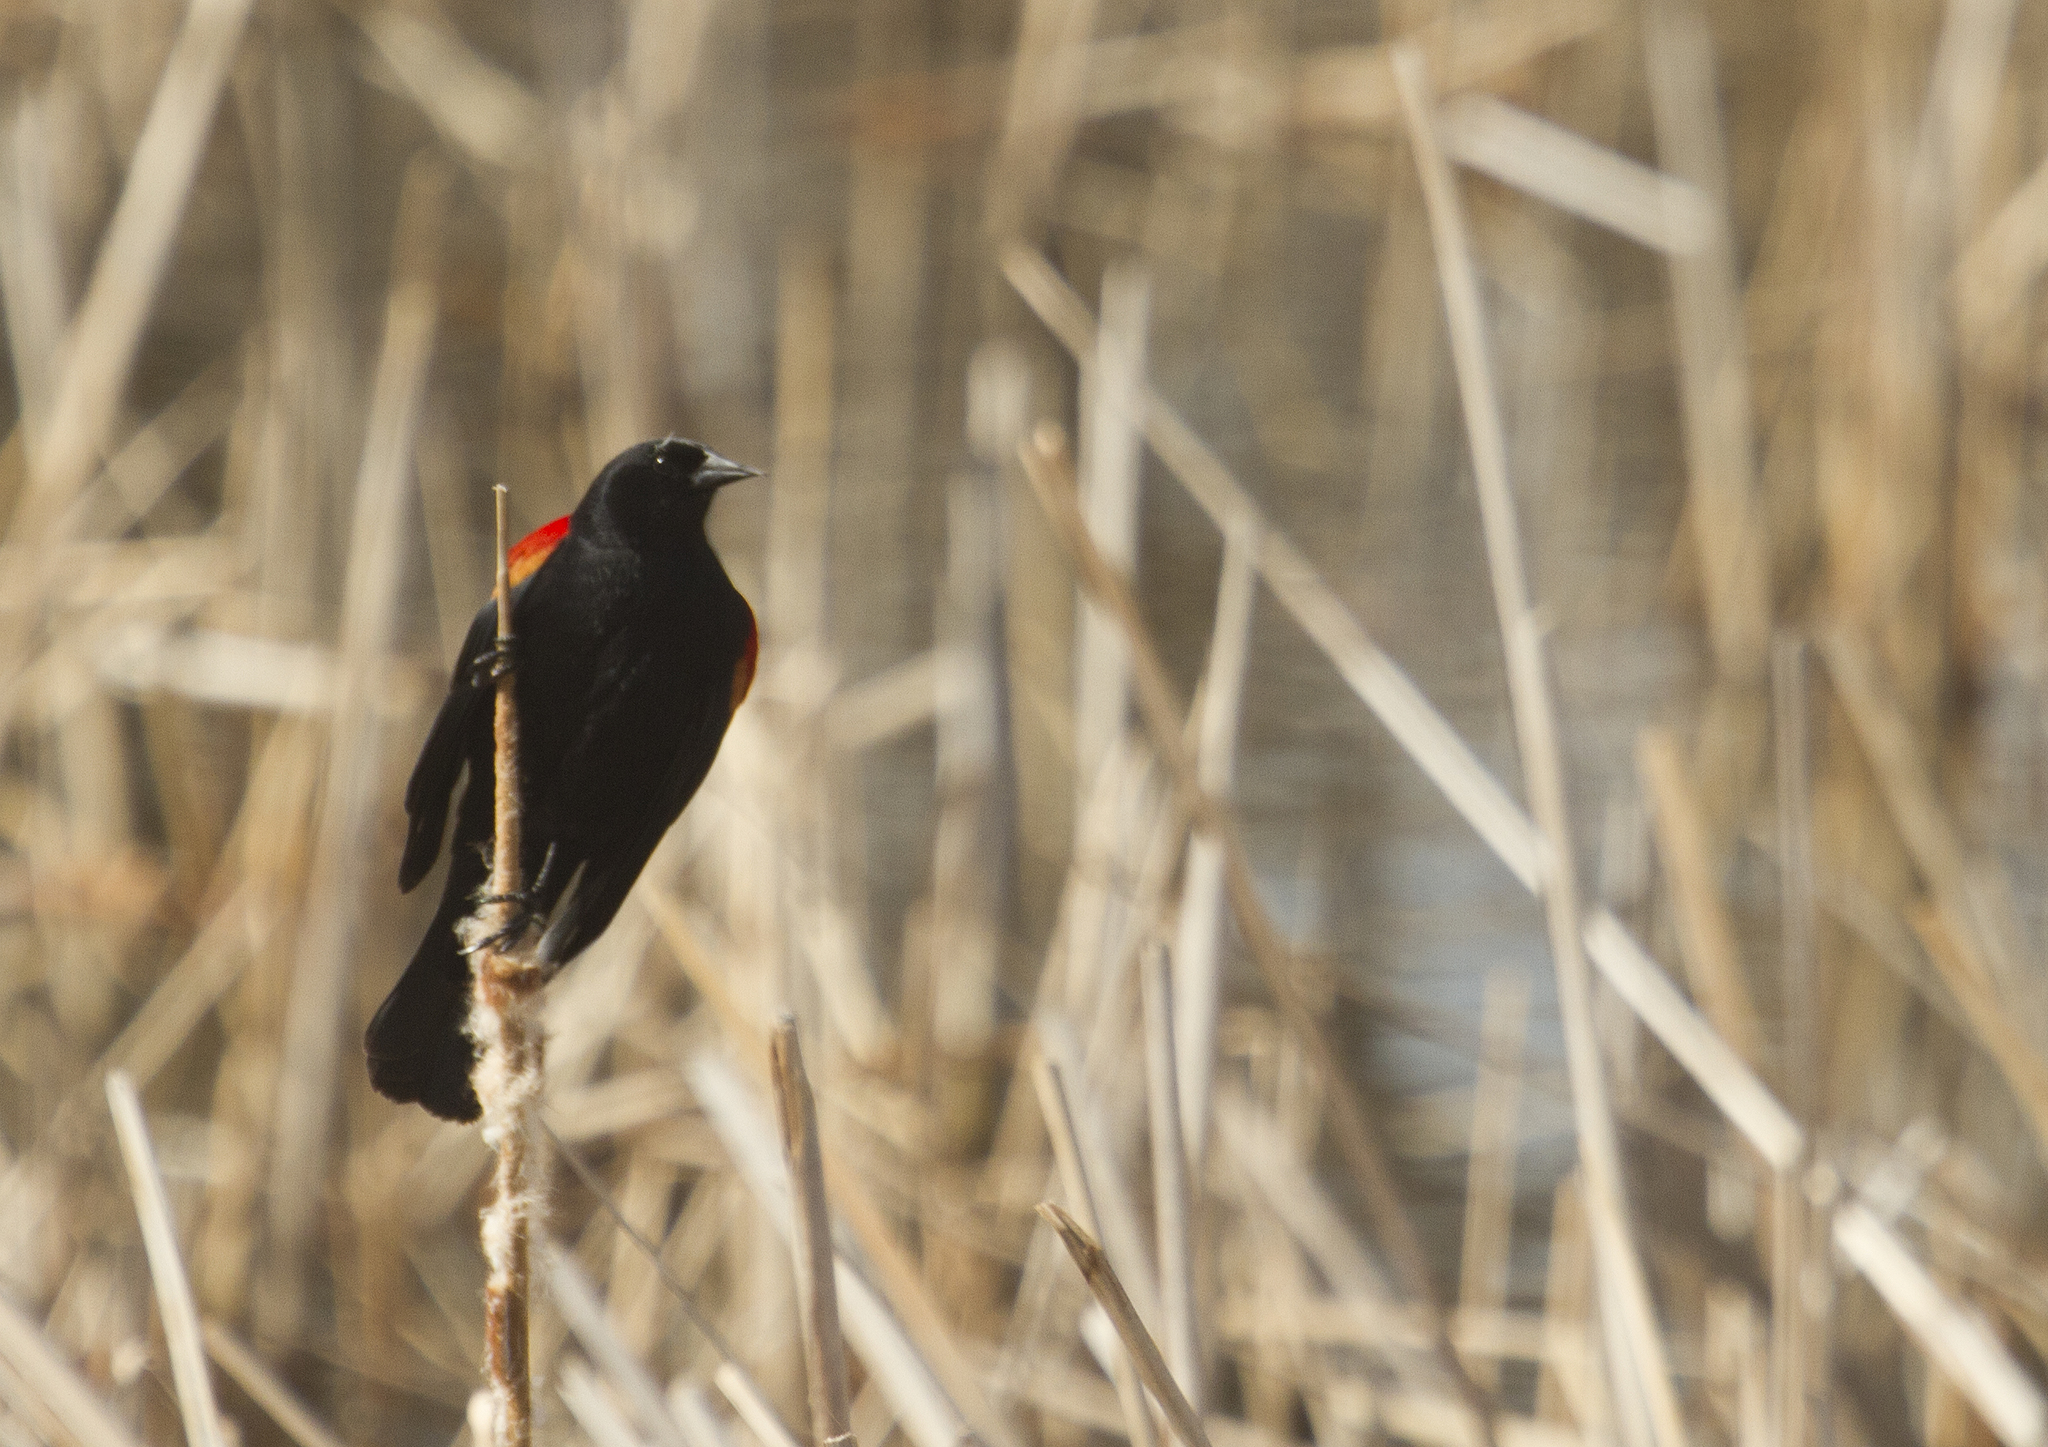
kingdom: Animalia
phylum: Chordata
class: Aves
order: Passeriformes
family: Icteridae
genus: Agelaius
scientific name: Agelaius phoeniceus
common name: Red-winged blackbird
